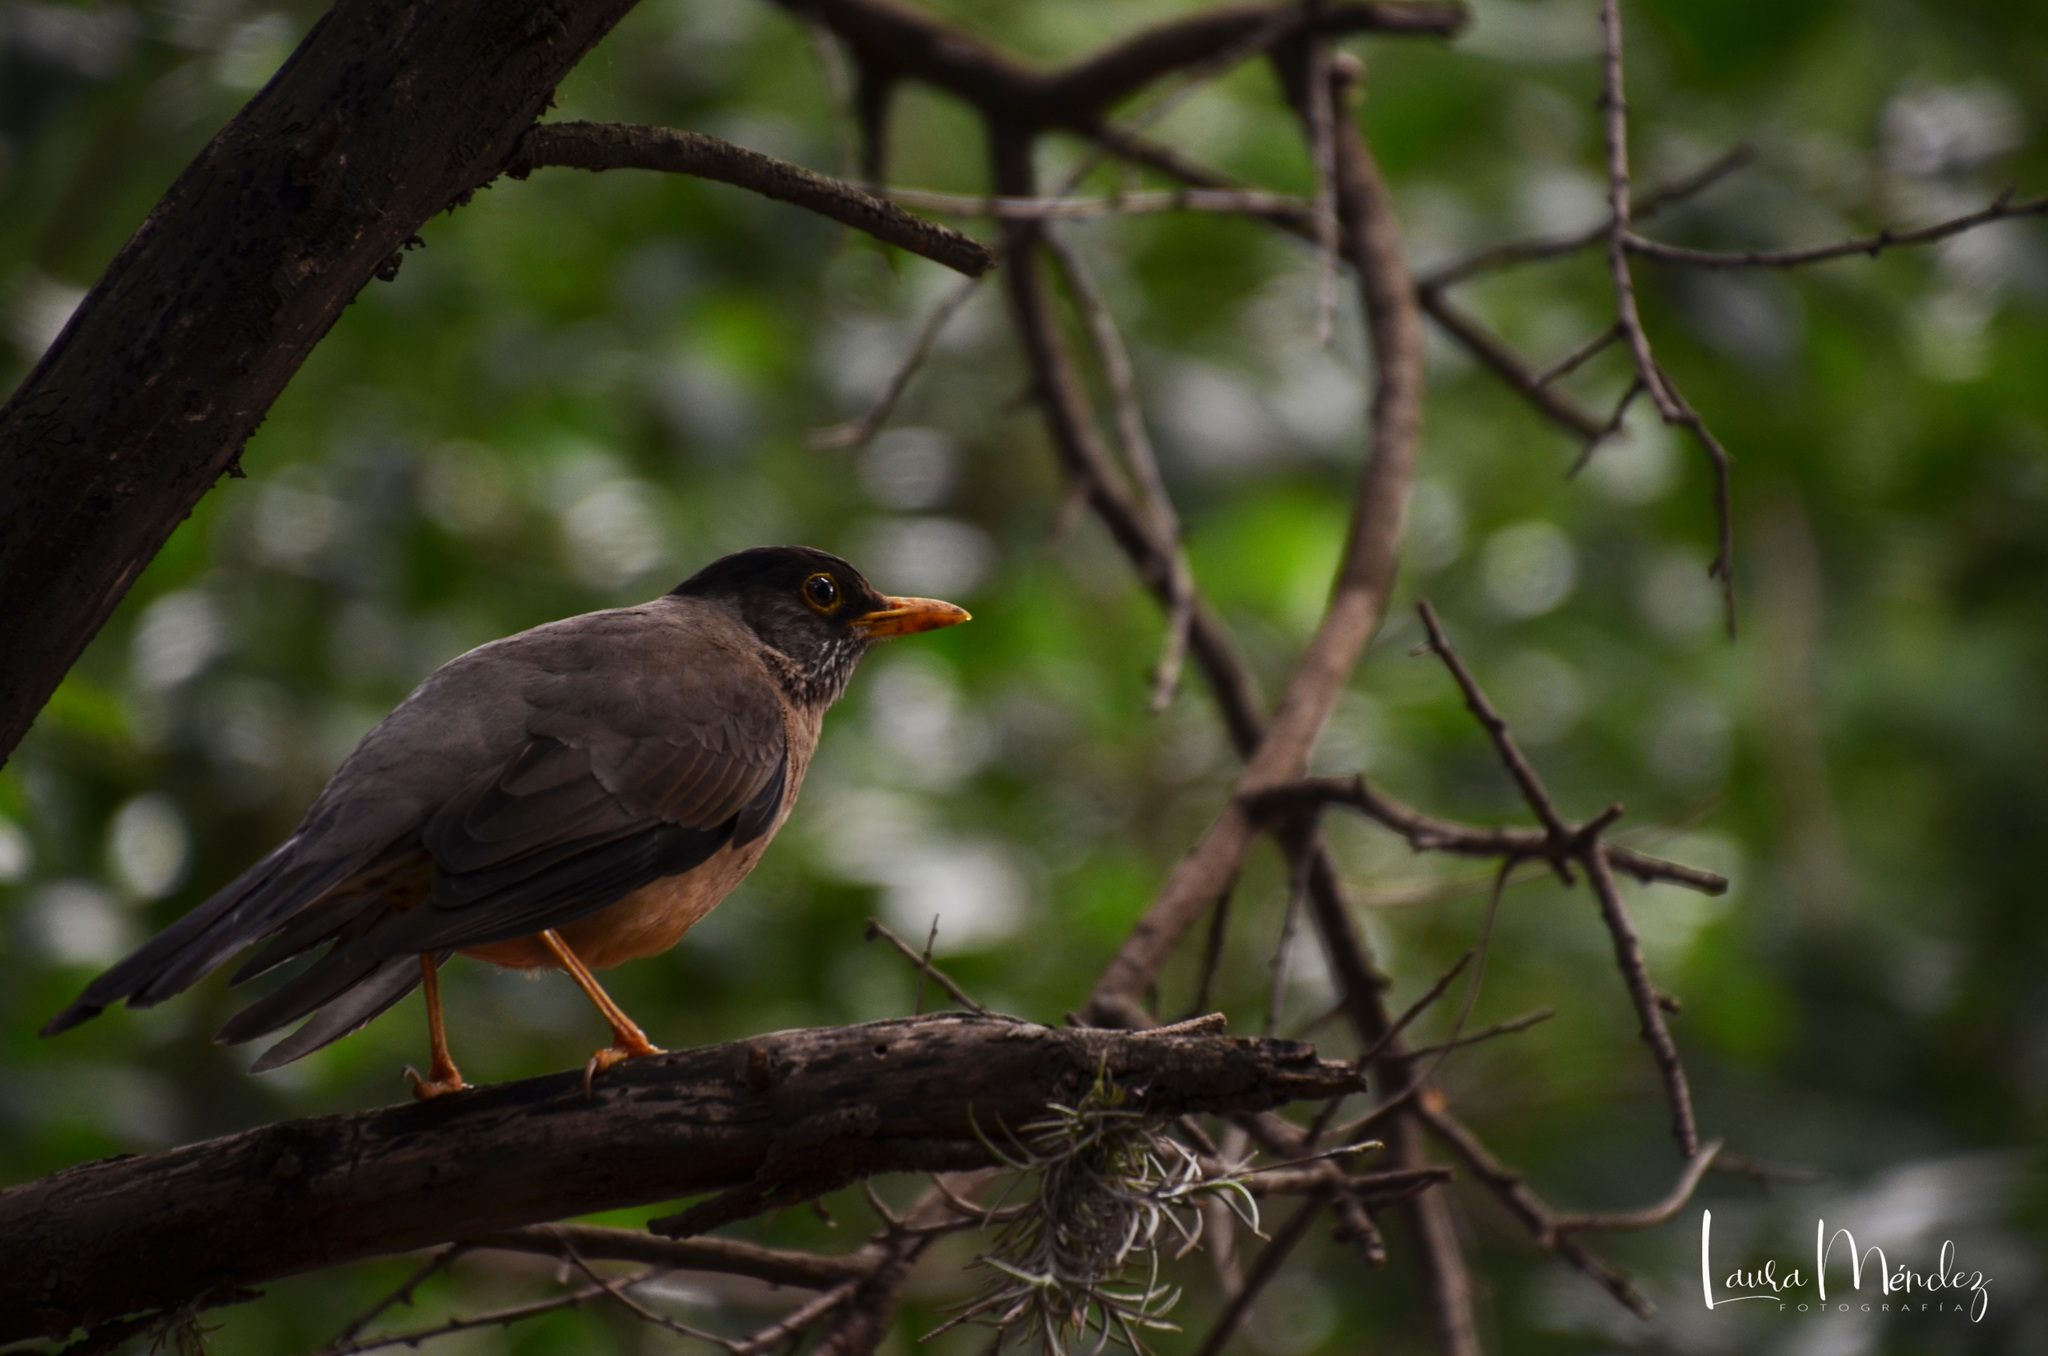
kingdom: Animalia
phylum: Chordata
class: Aves
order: Passeriformes
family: Turdidae
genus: Turdus
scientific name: Turdus falcklandii
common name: Austral thrush
